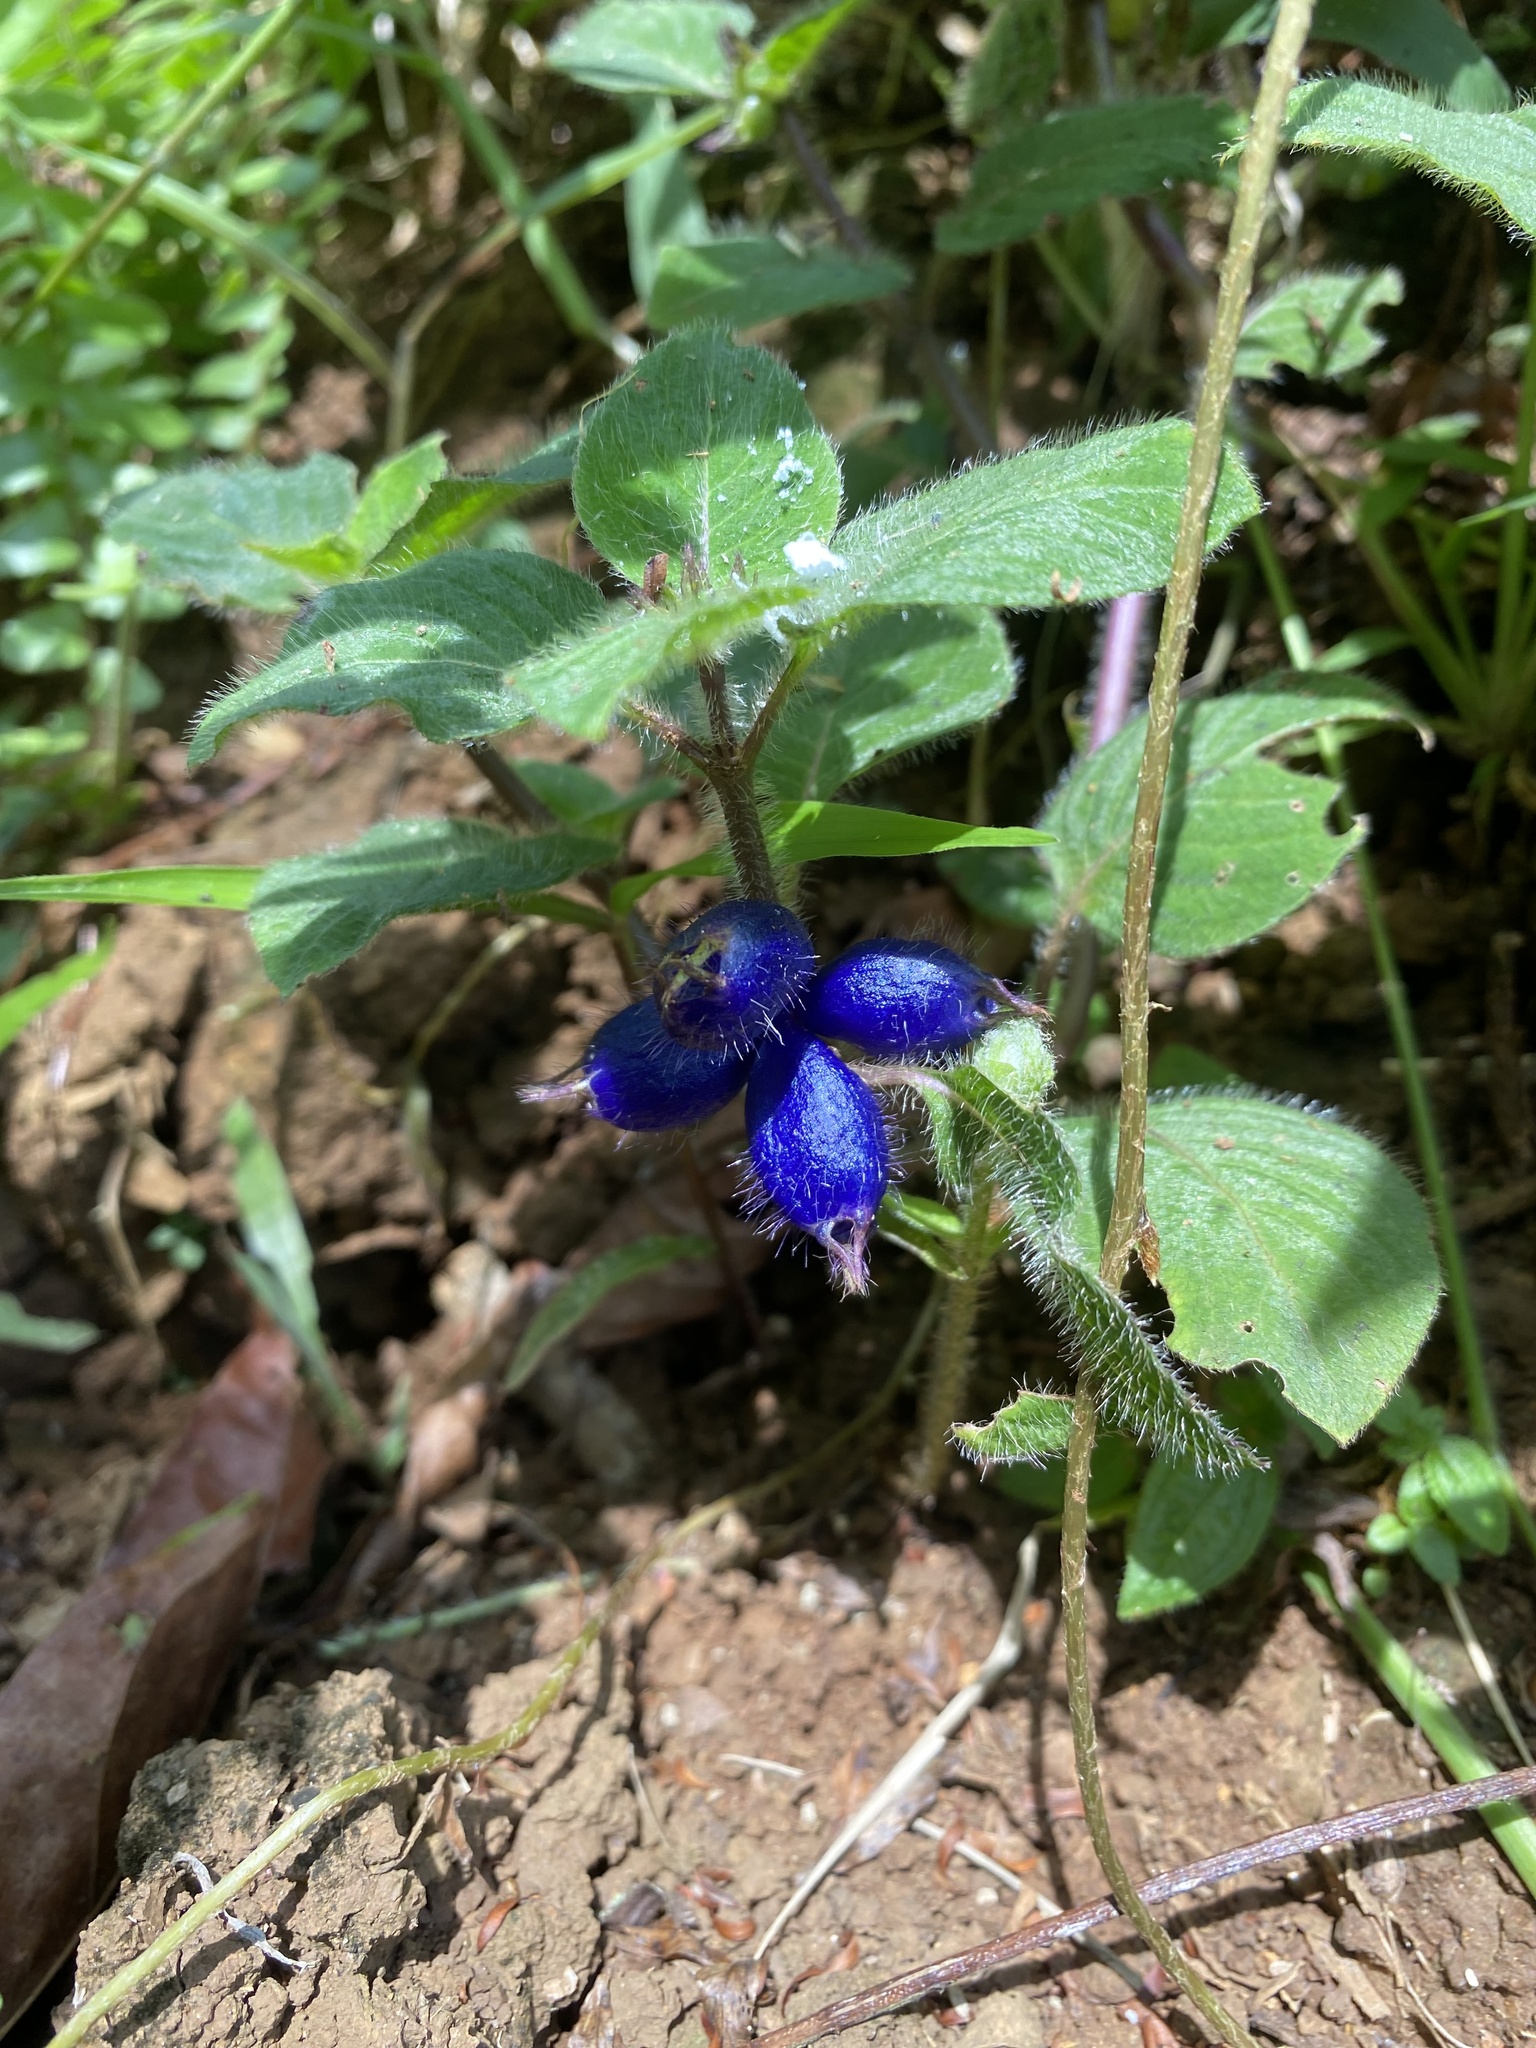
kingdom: Plantae
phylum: Tracheophyta
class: Magnoliopsida
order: Gentianales
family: Rubiaceae
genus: Coccocypselum
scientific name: Coccocypselum hispidulum
